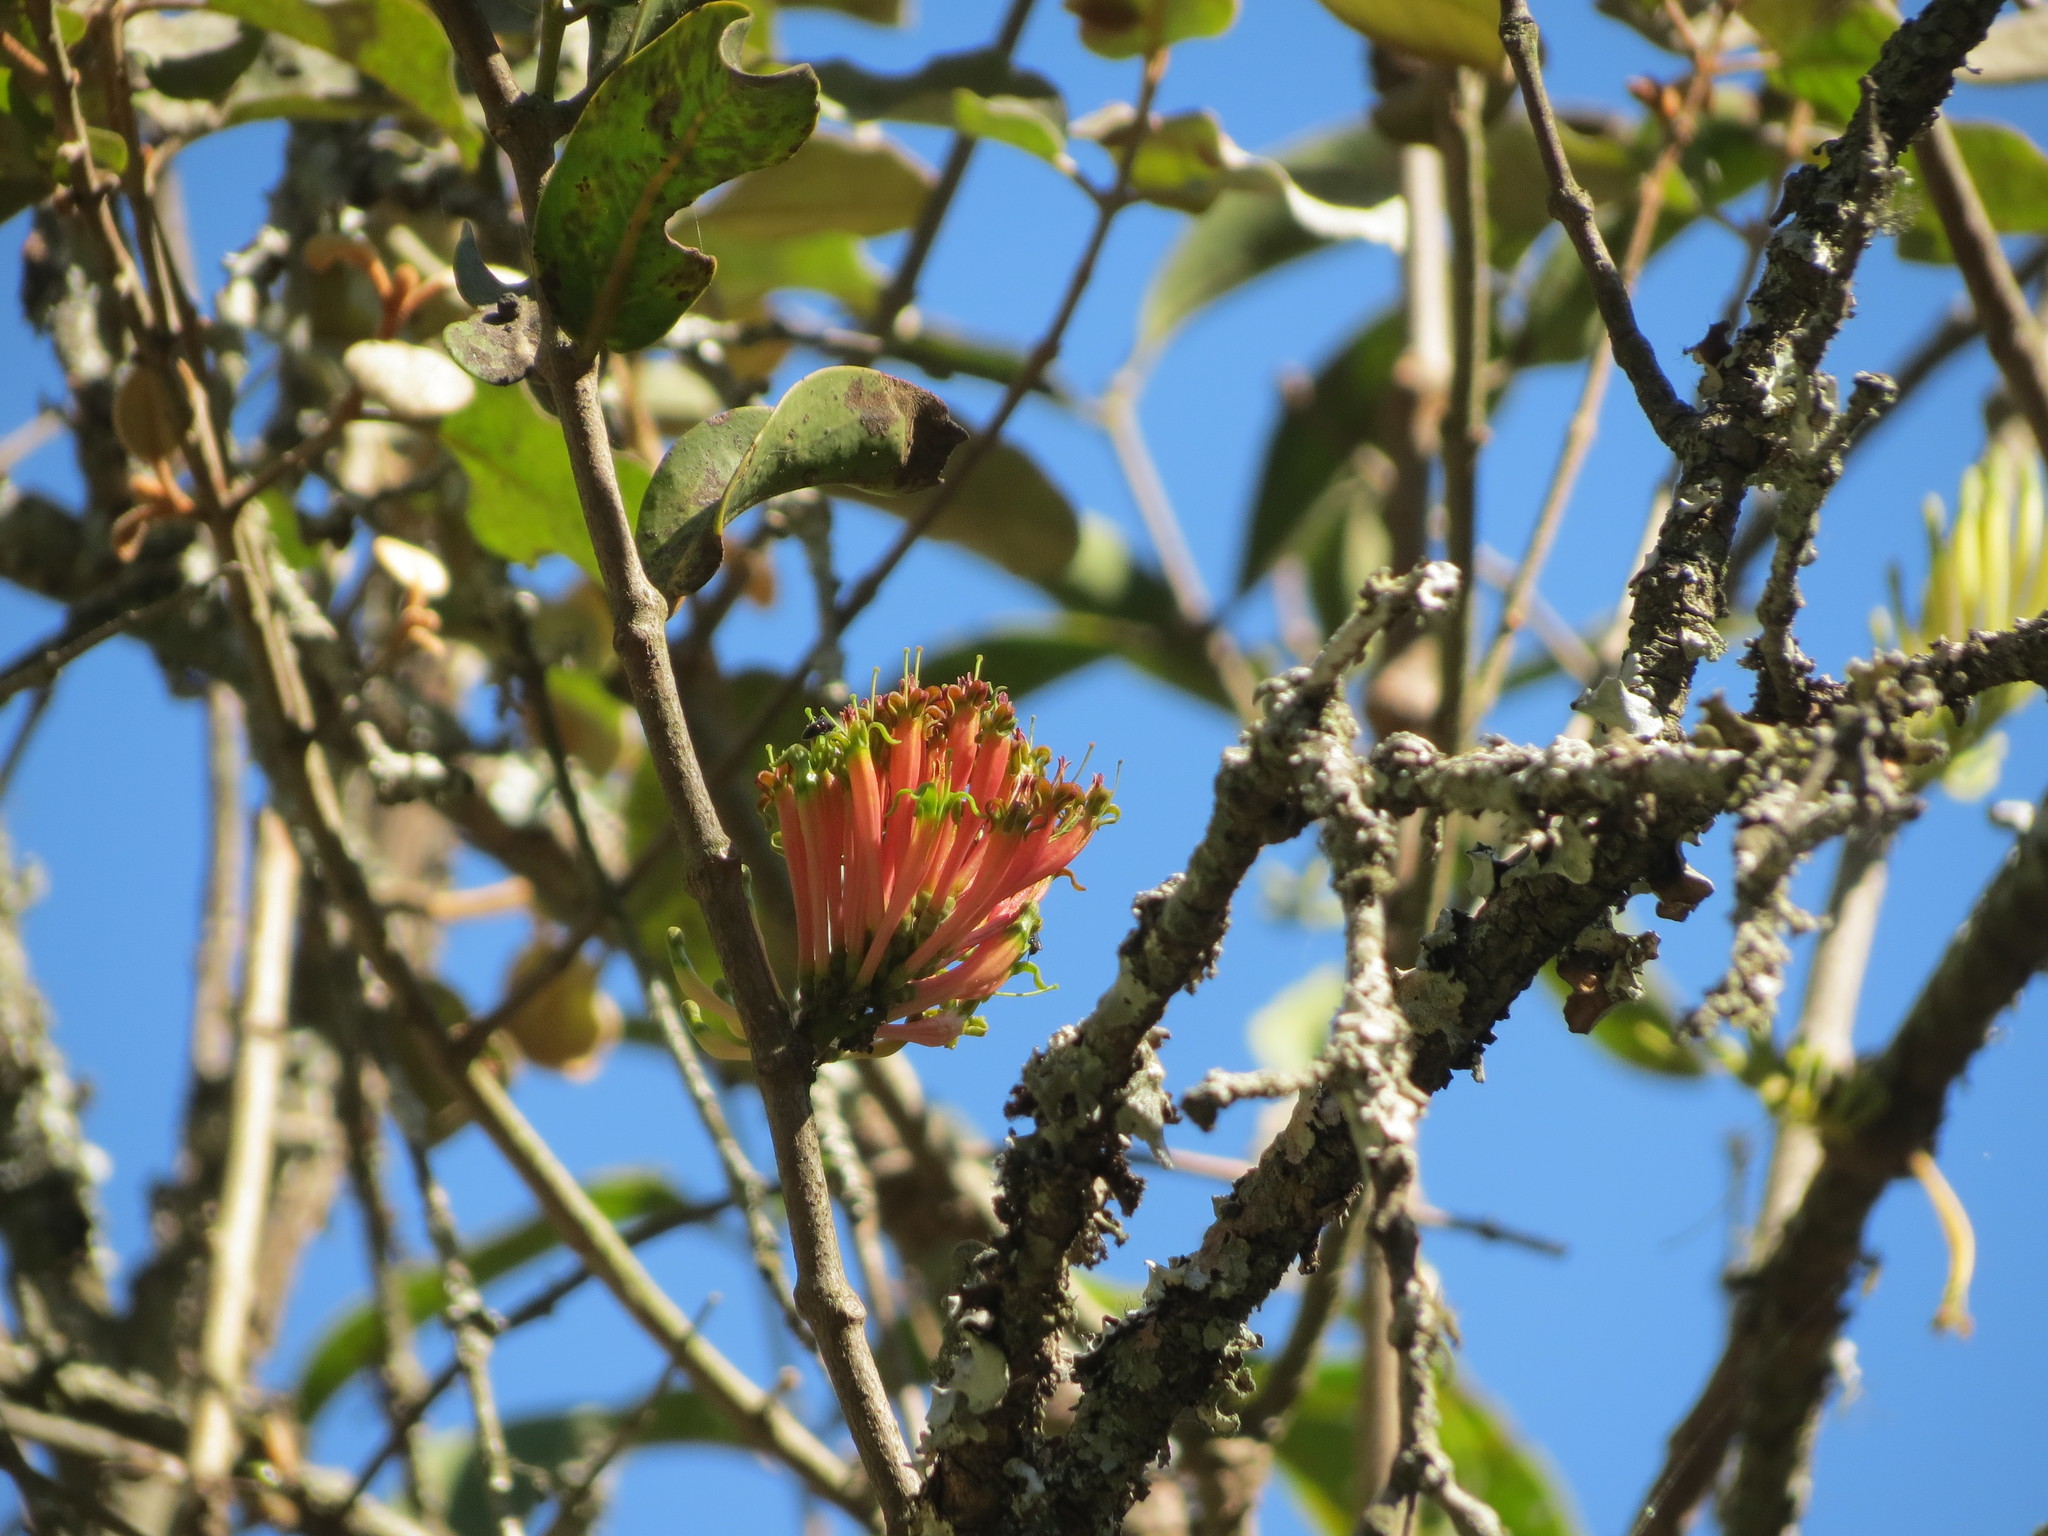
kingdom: Plantae
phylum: Tracheophyta
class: Magnoliopsida
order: Santalales
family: Loranthaceae
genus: Dendrophthoe
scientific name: Dendrophthoe falcata
